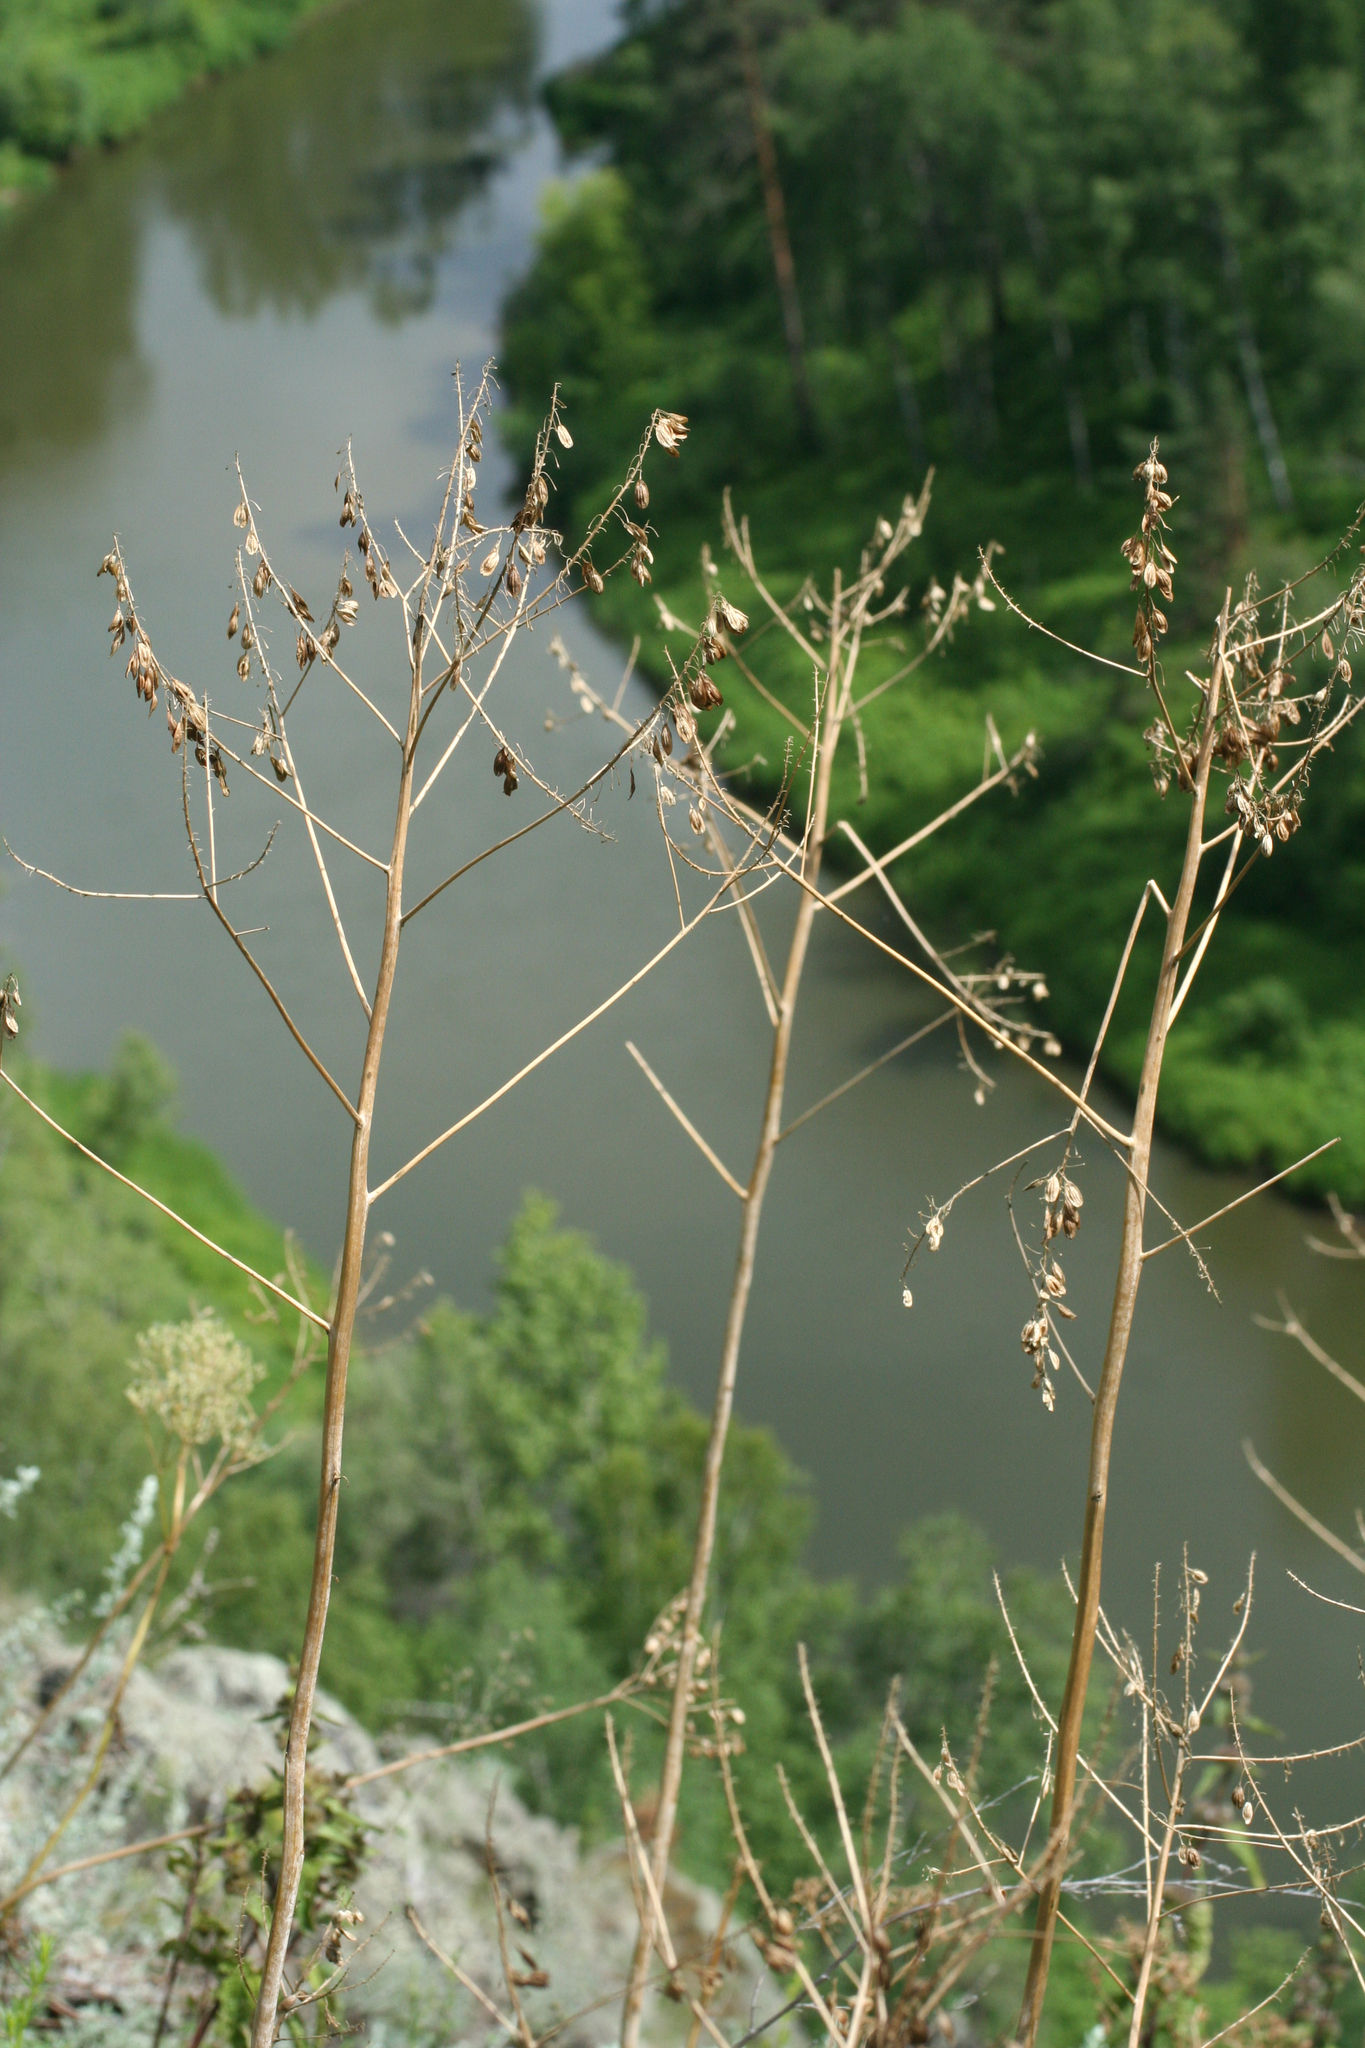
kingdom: Plantae
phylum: Tracheophyta
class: Magnoliopsida
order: Brassicales
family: Brassicaceae
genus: Isatis
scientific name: Isatis tinctoria
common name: Woad
